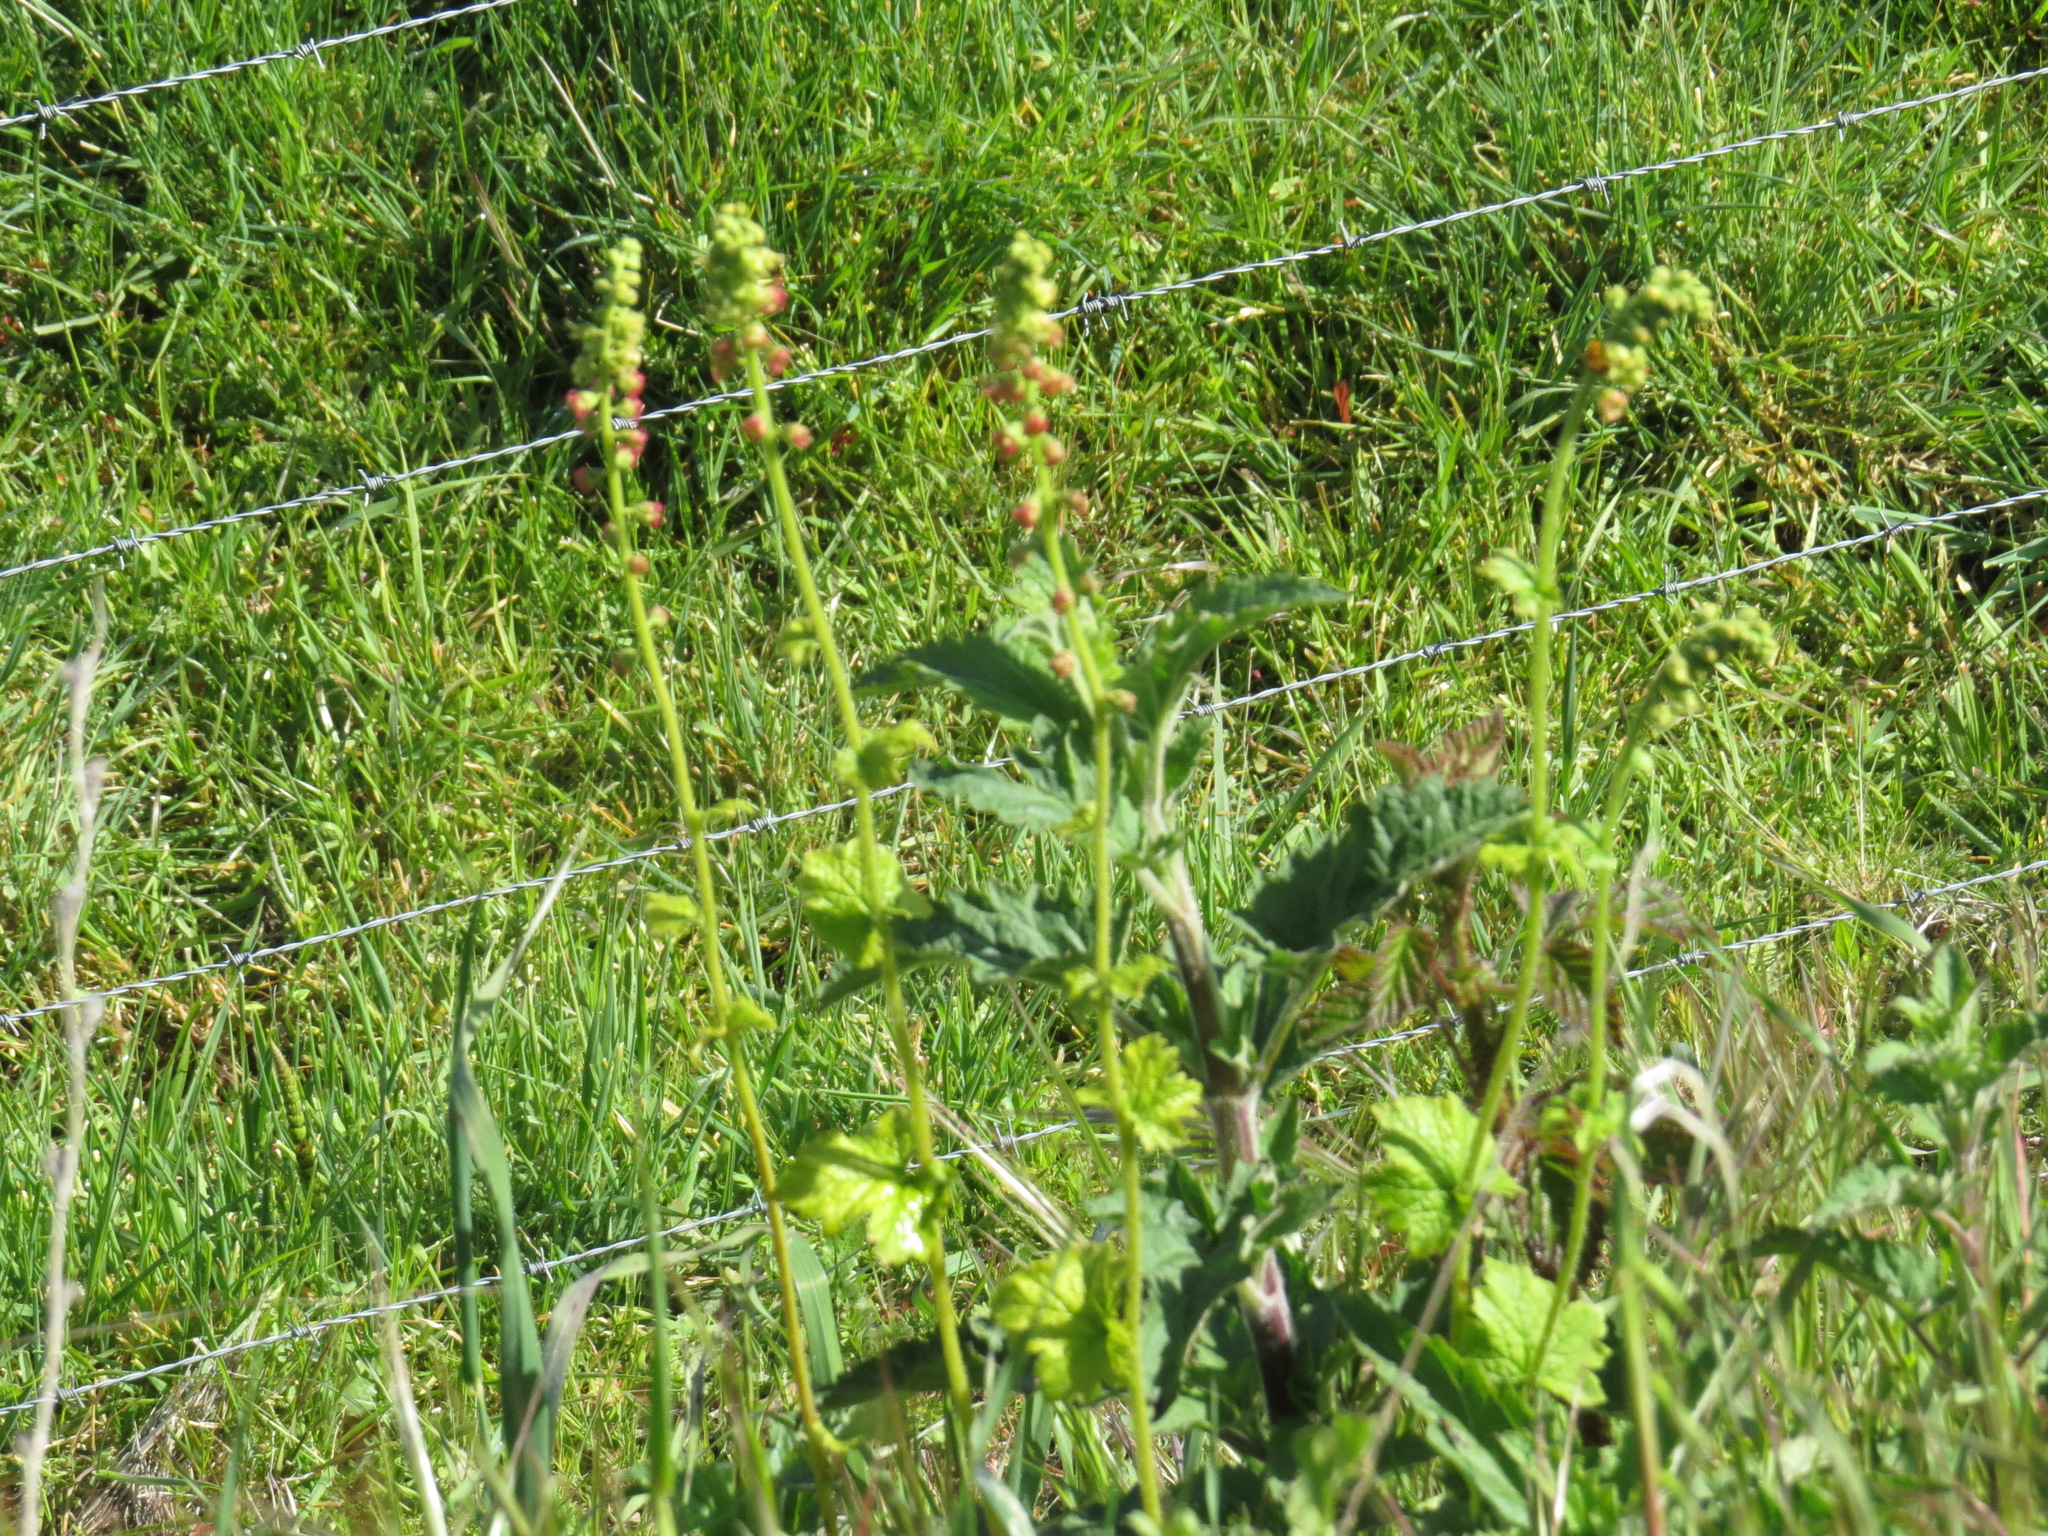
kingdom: Plantae
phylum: Tracheophyta
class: Magnoliopsida
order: Saxifragales
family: Saxifragaceae
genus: Tellima
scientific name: Tellima grandiflora
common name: Fringecups
